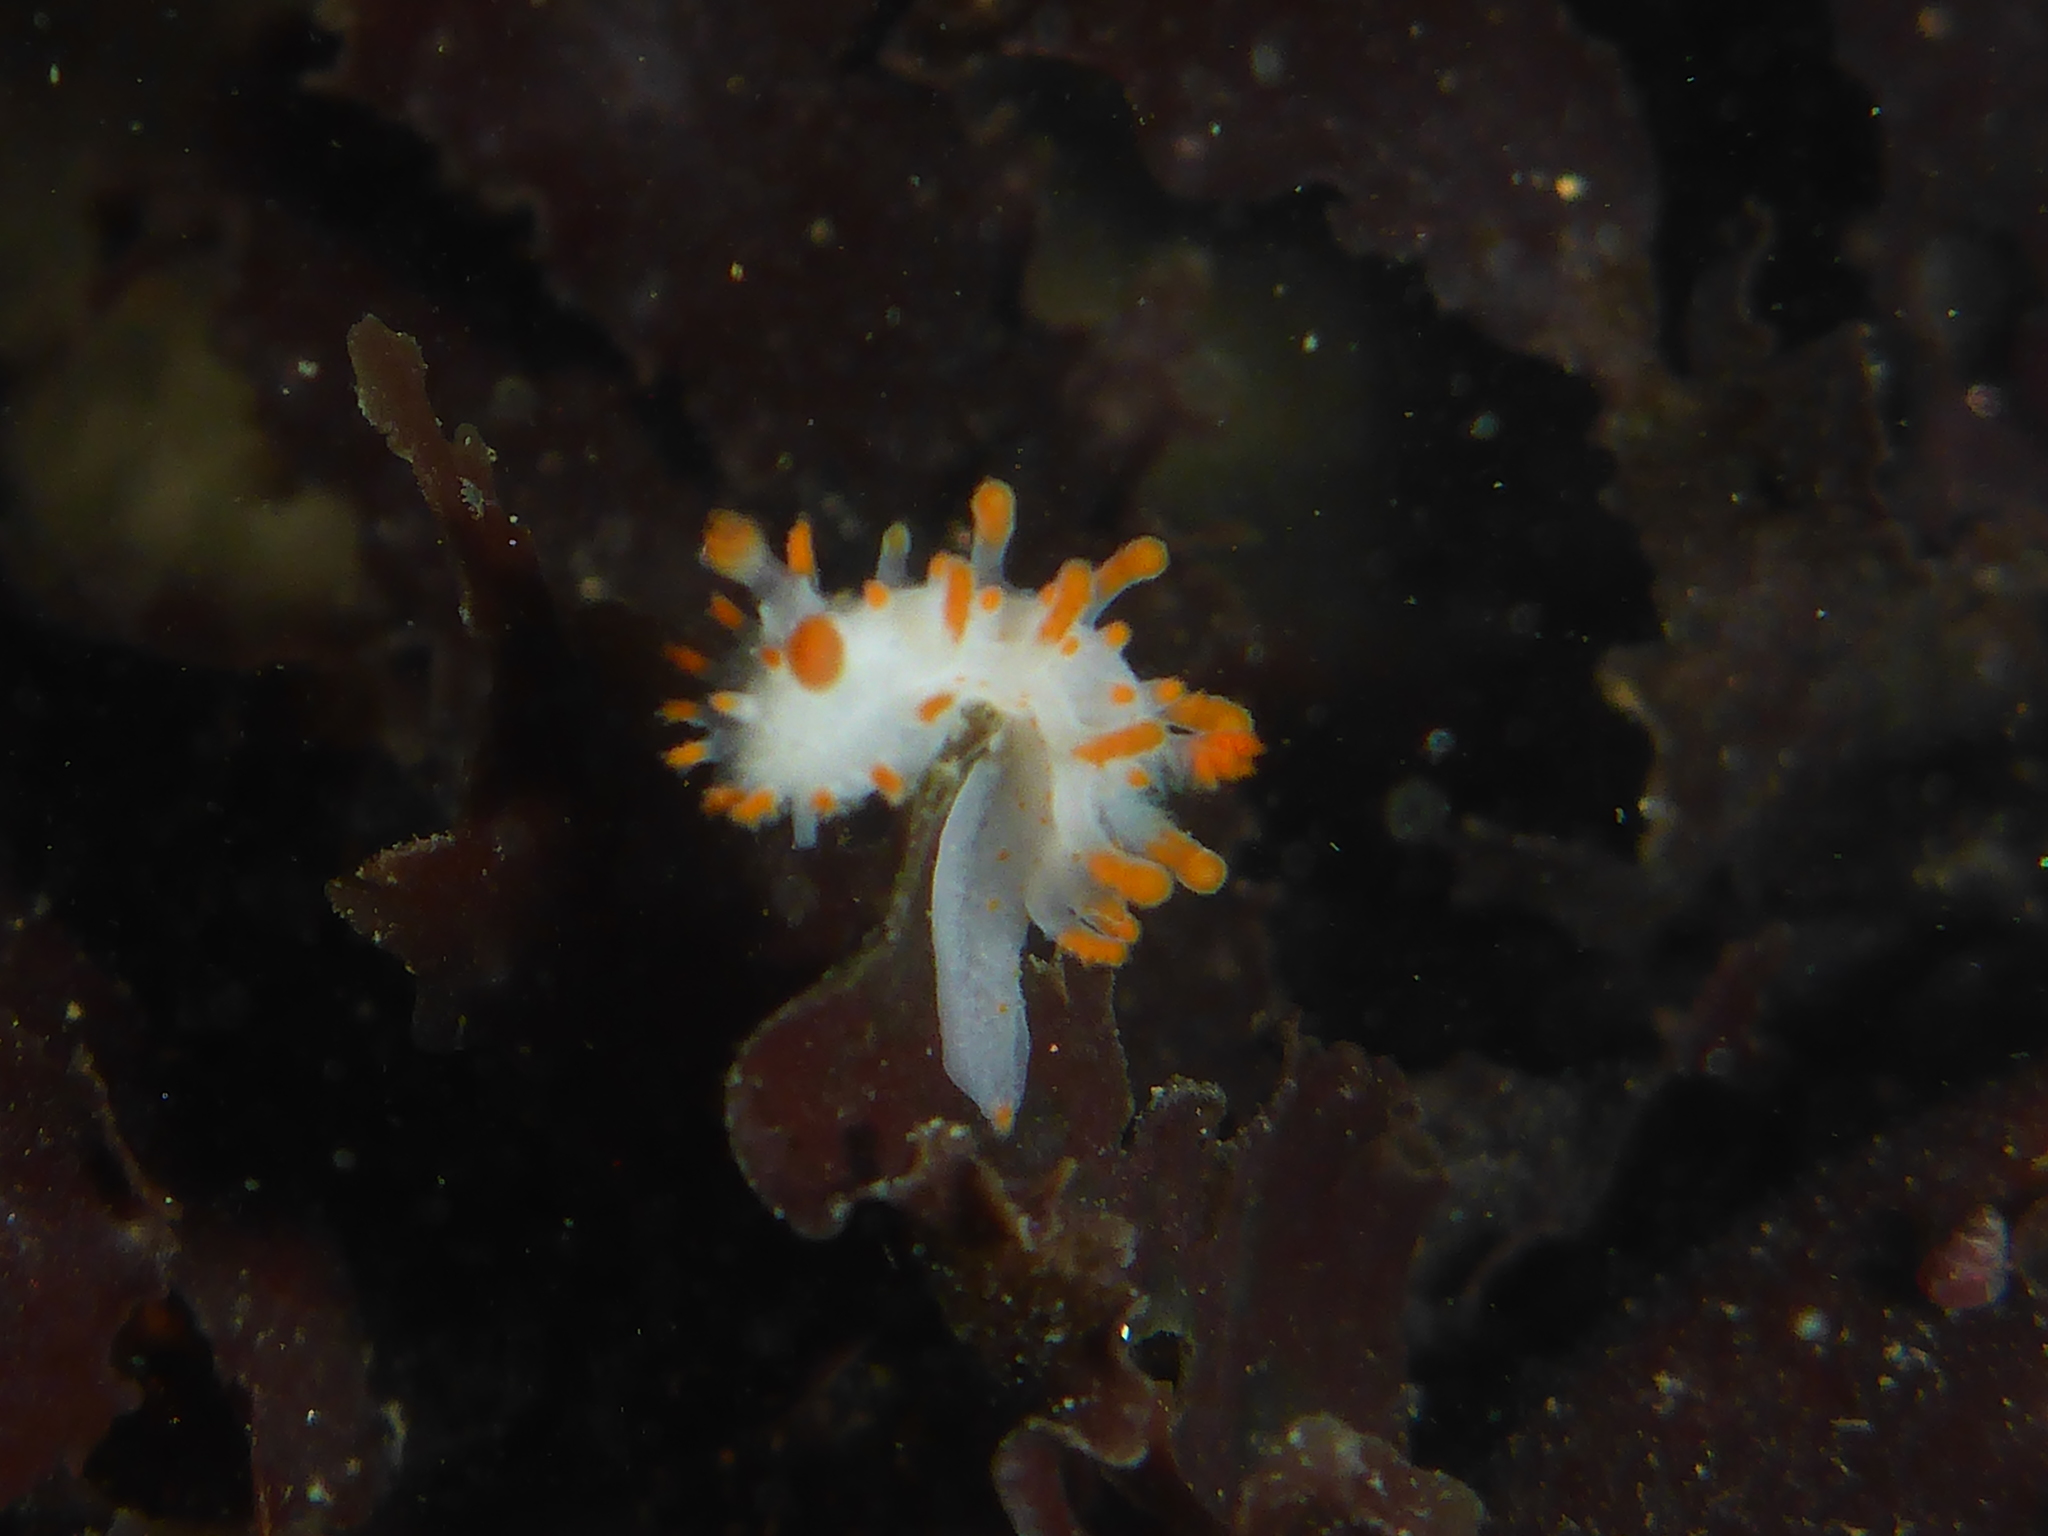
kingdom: Animalia
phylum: Mollusca
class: Gastropoda
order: Nudibranchia
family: Polyceridae
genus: Limacia
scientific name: Limacia cockerelli
